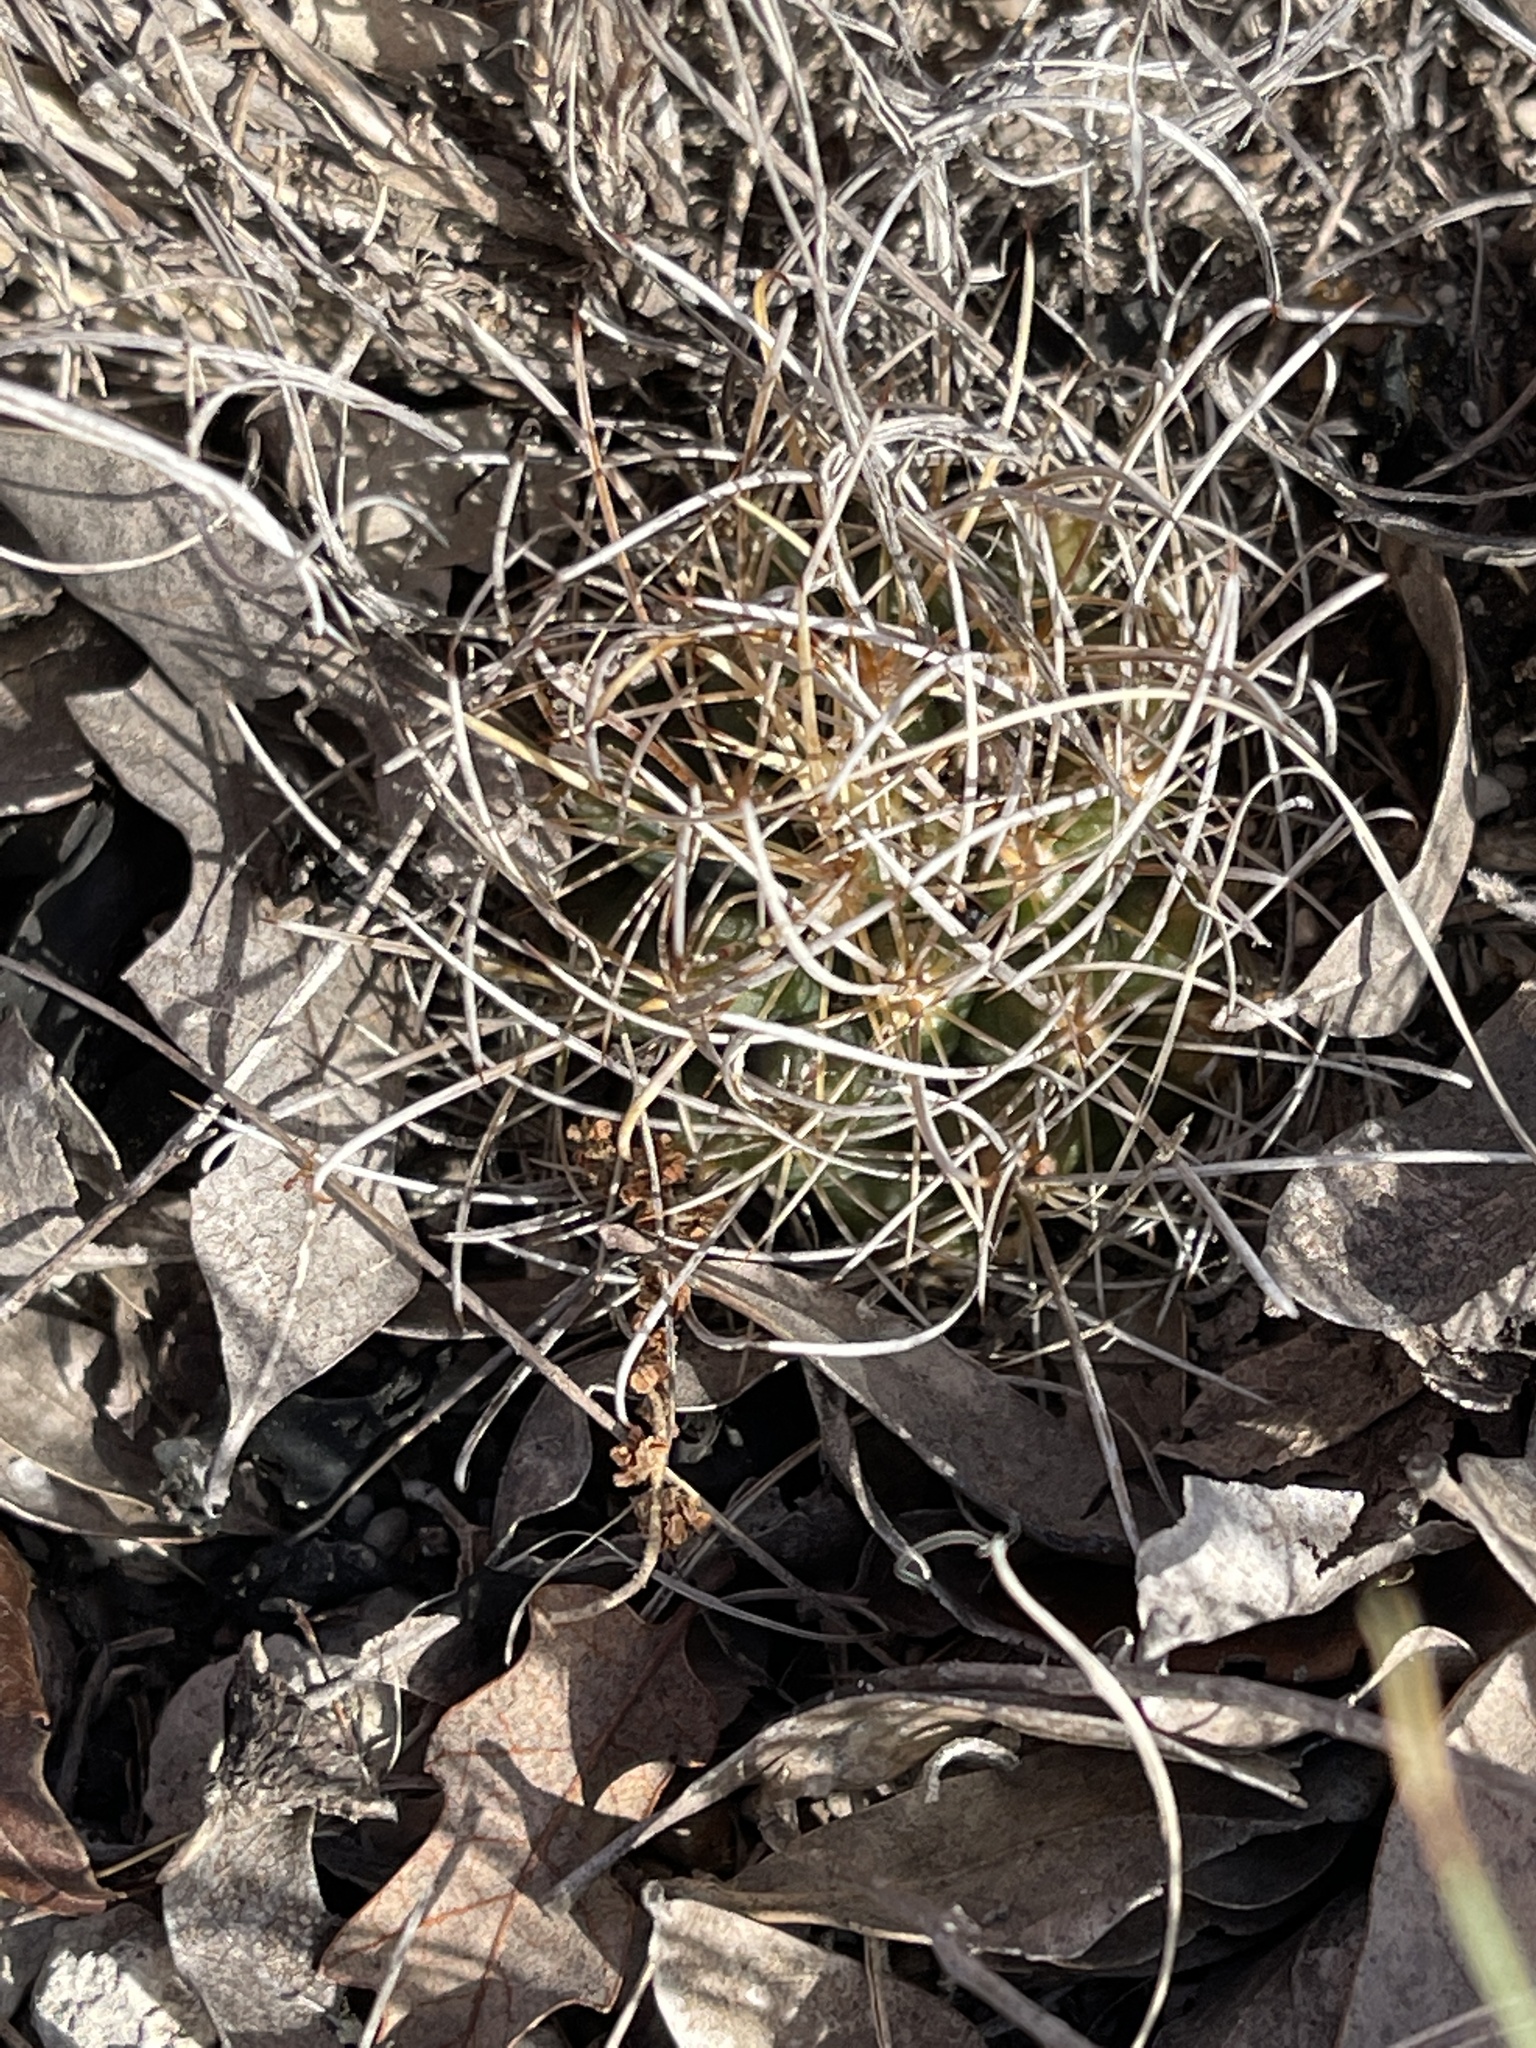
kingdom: Plantae
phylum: Tracheophyta
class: Magnoliopsida
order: Caryophyllales
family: Cactaceae
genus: Sclerocactus
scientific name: Sclerocactus brevihamatus
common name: Engelmann's fishhook cactus
